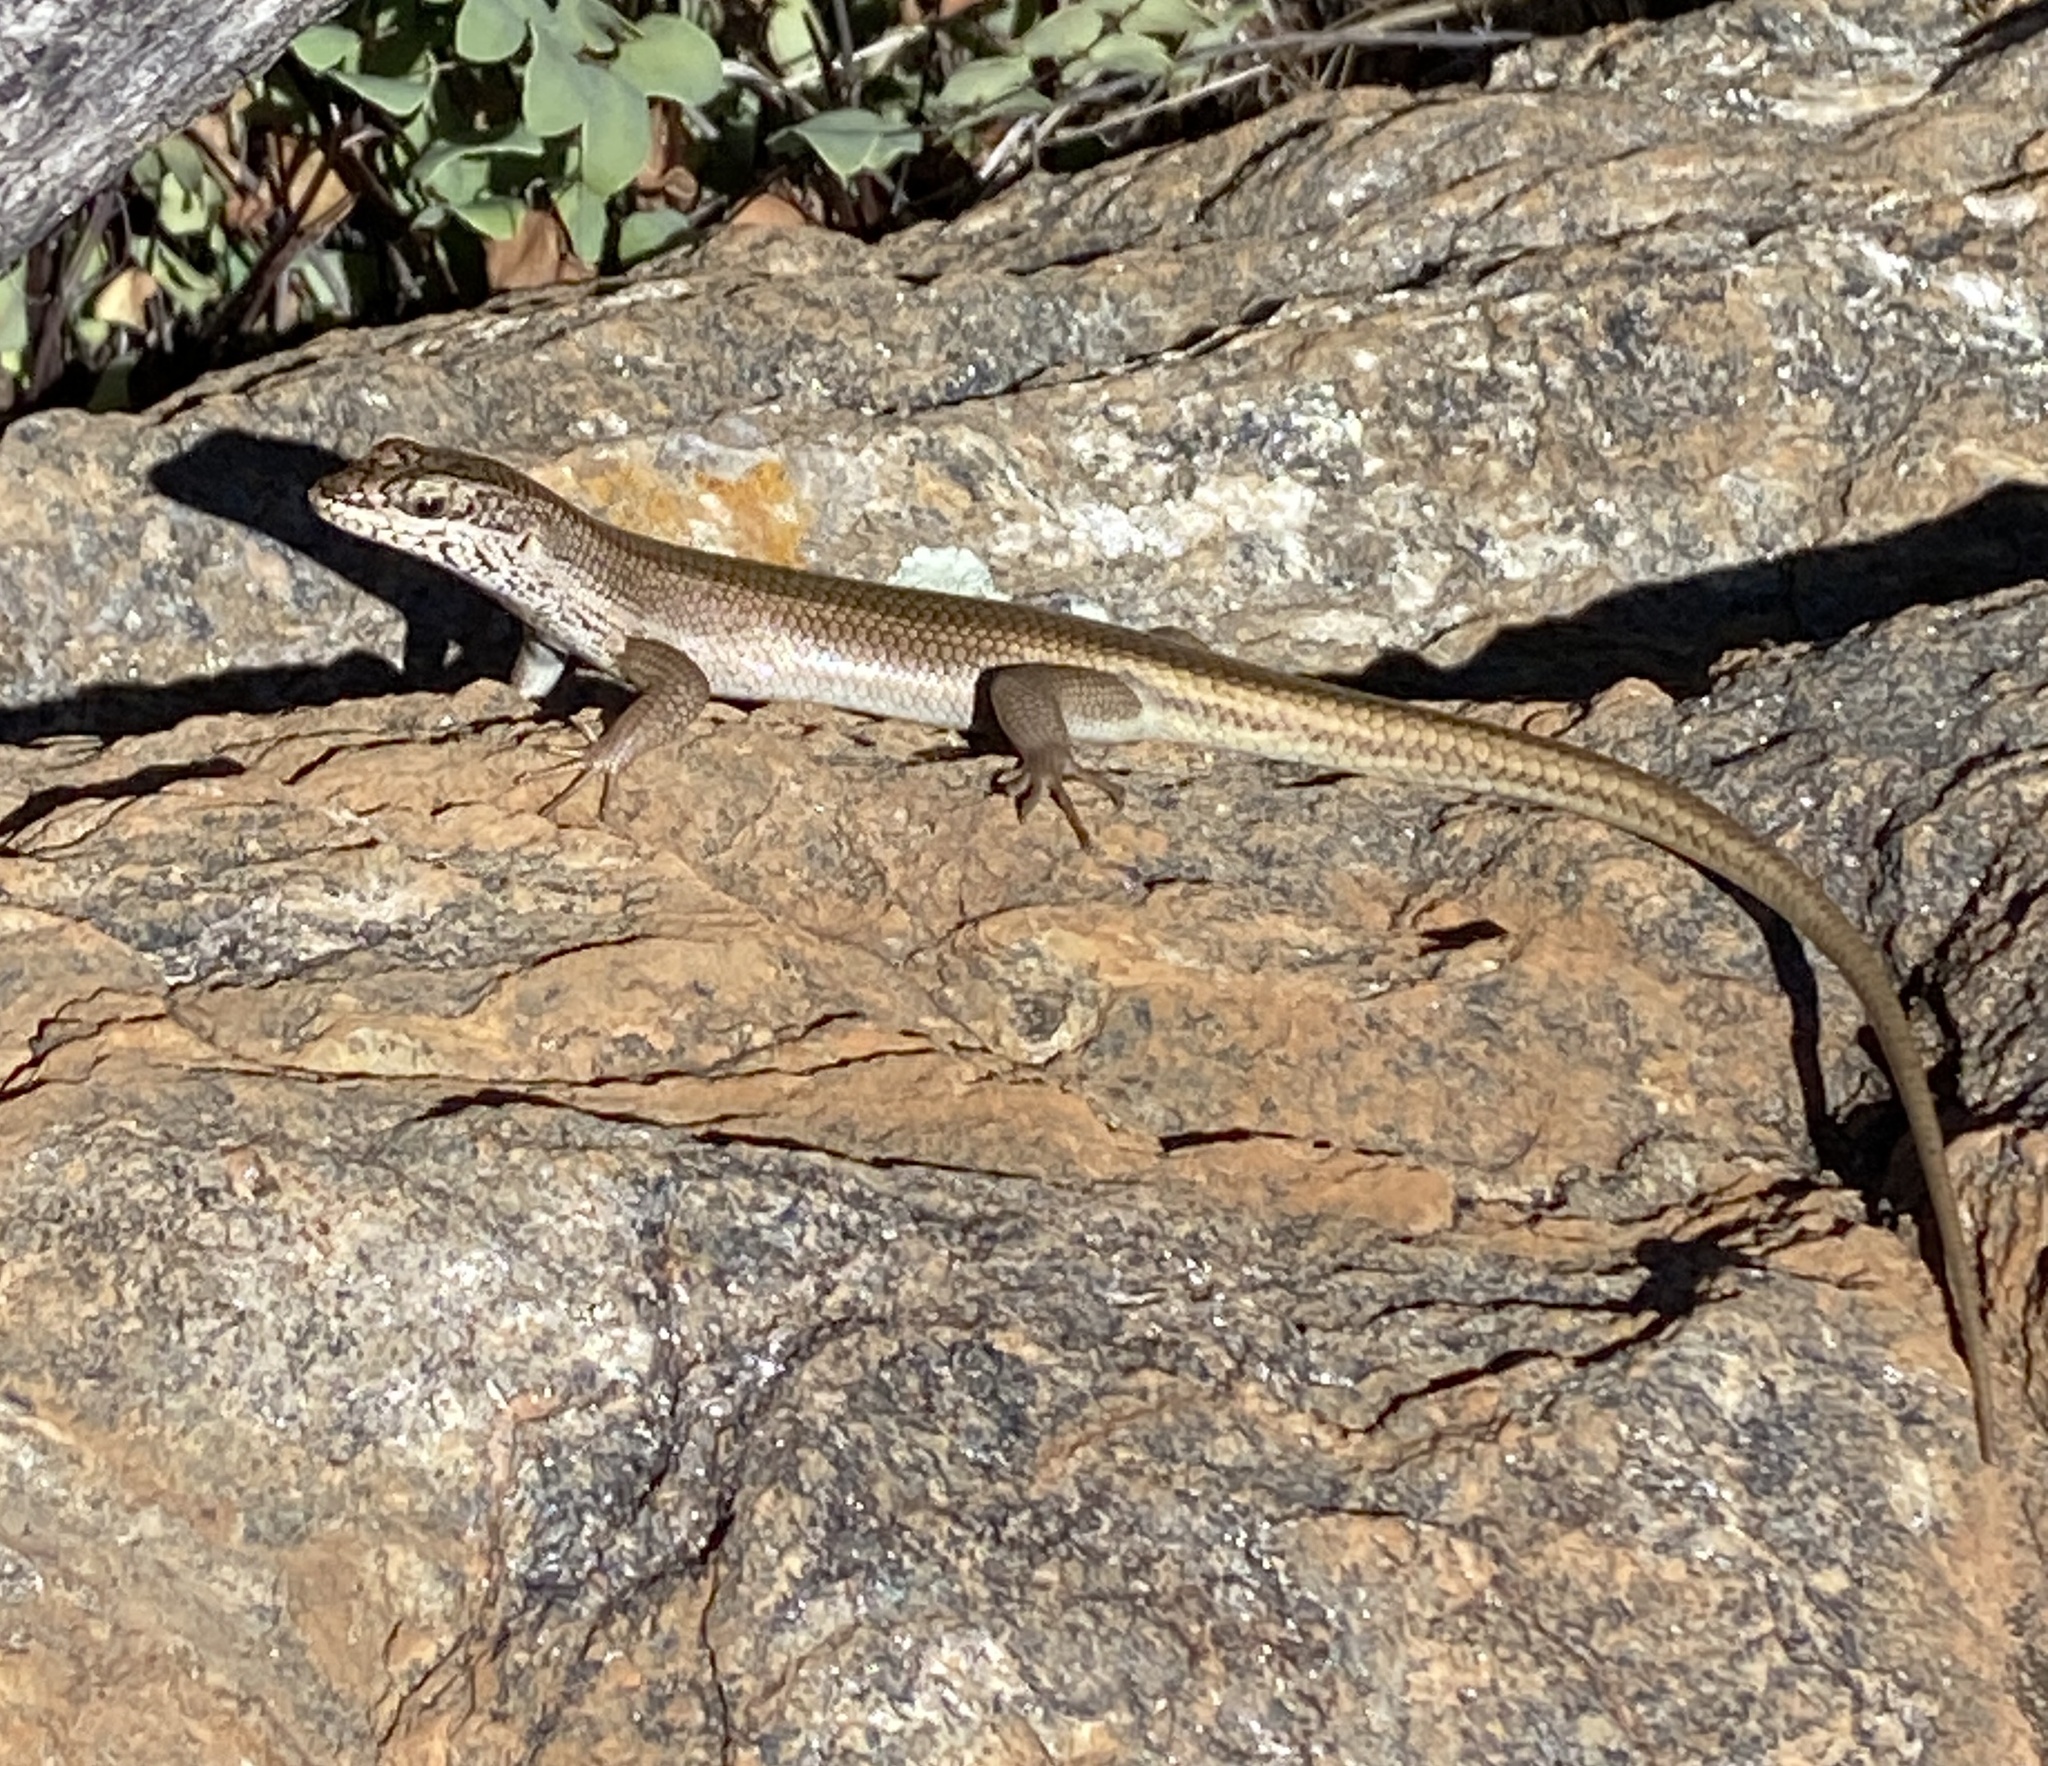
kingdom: Animalia
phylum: Chordata
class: Squamata
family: Scincidae
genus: Trachylepis
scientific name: Trachylepis sulcata
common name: Western rock skink
